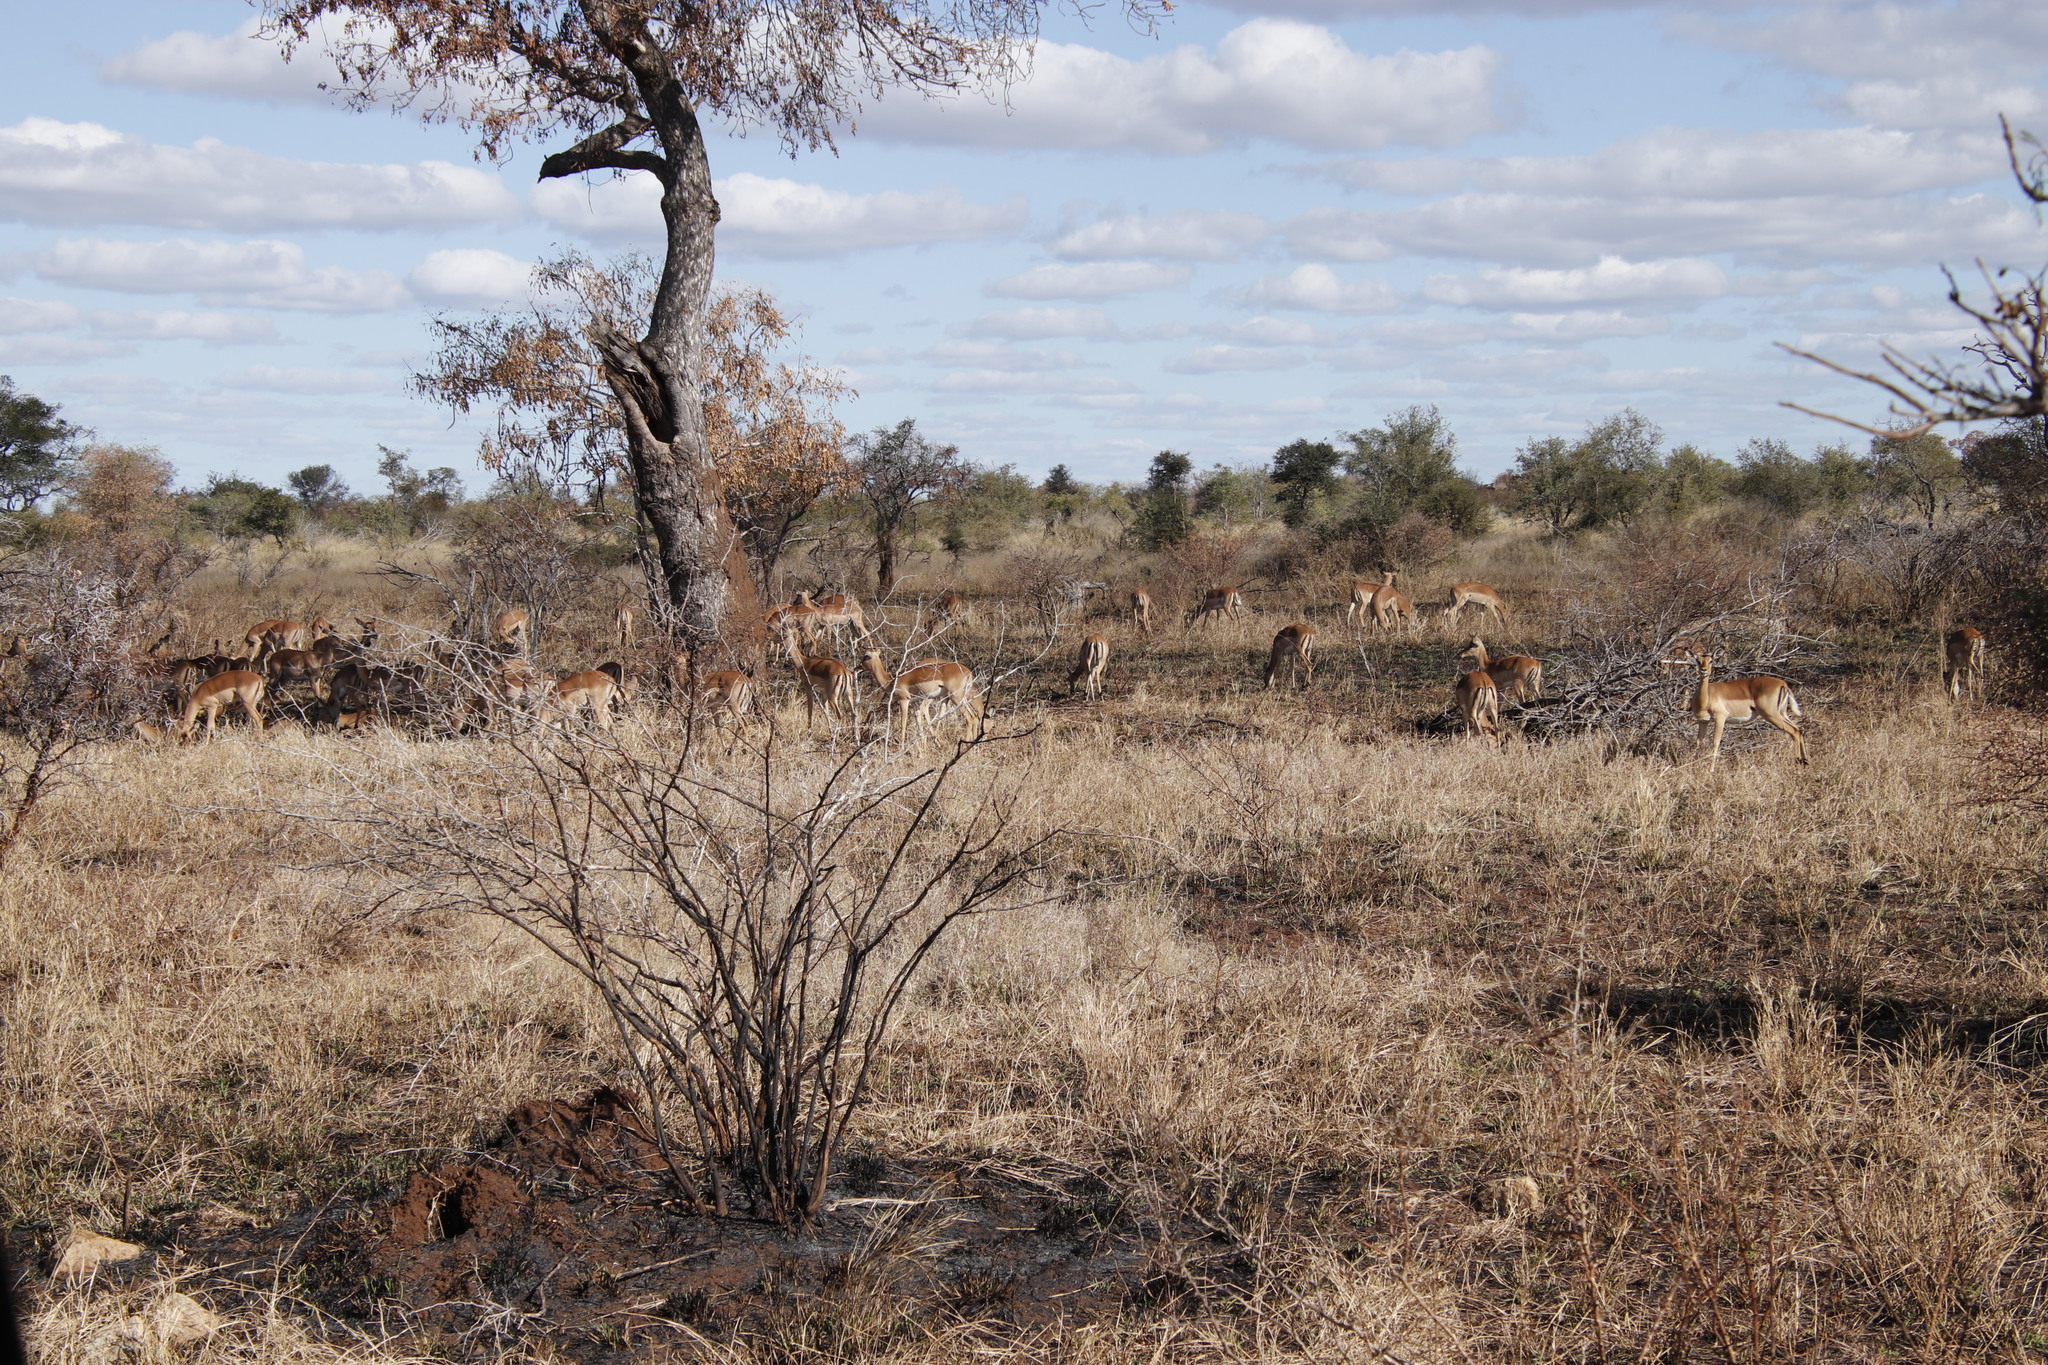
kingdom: Animalia
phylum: Chordata
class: Mammalia
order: Artiodactyla
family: Bovidae
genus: Aepyceros
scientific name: Aepyceros melampus
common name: Impala
